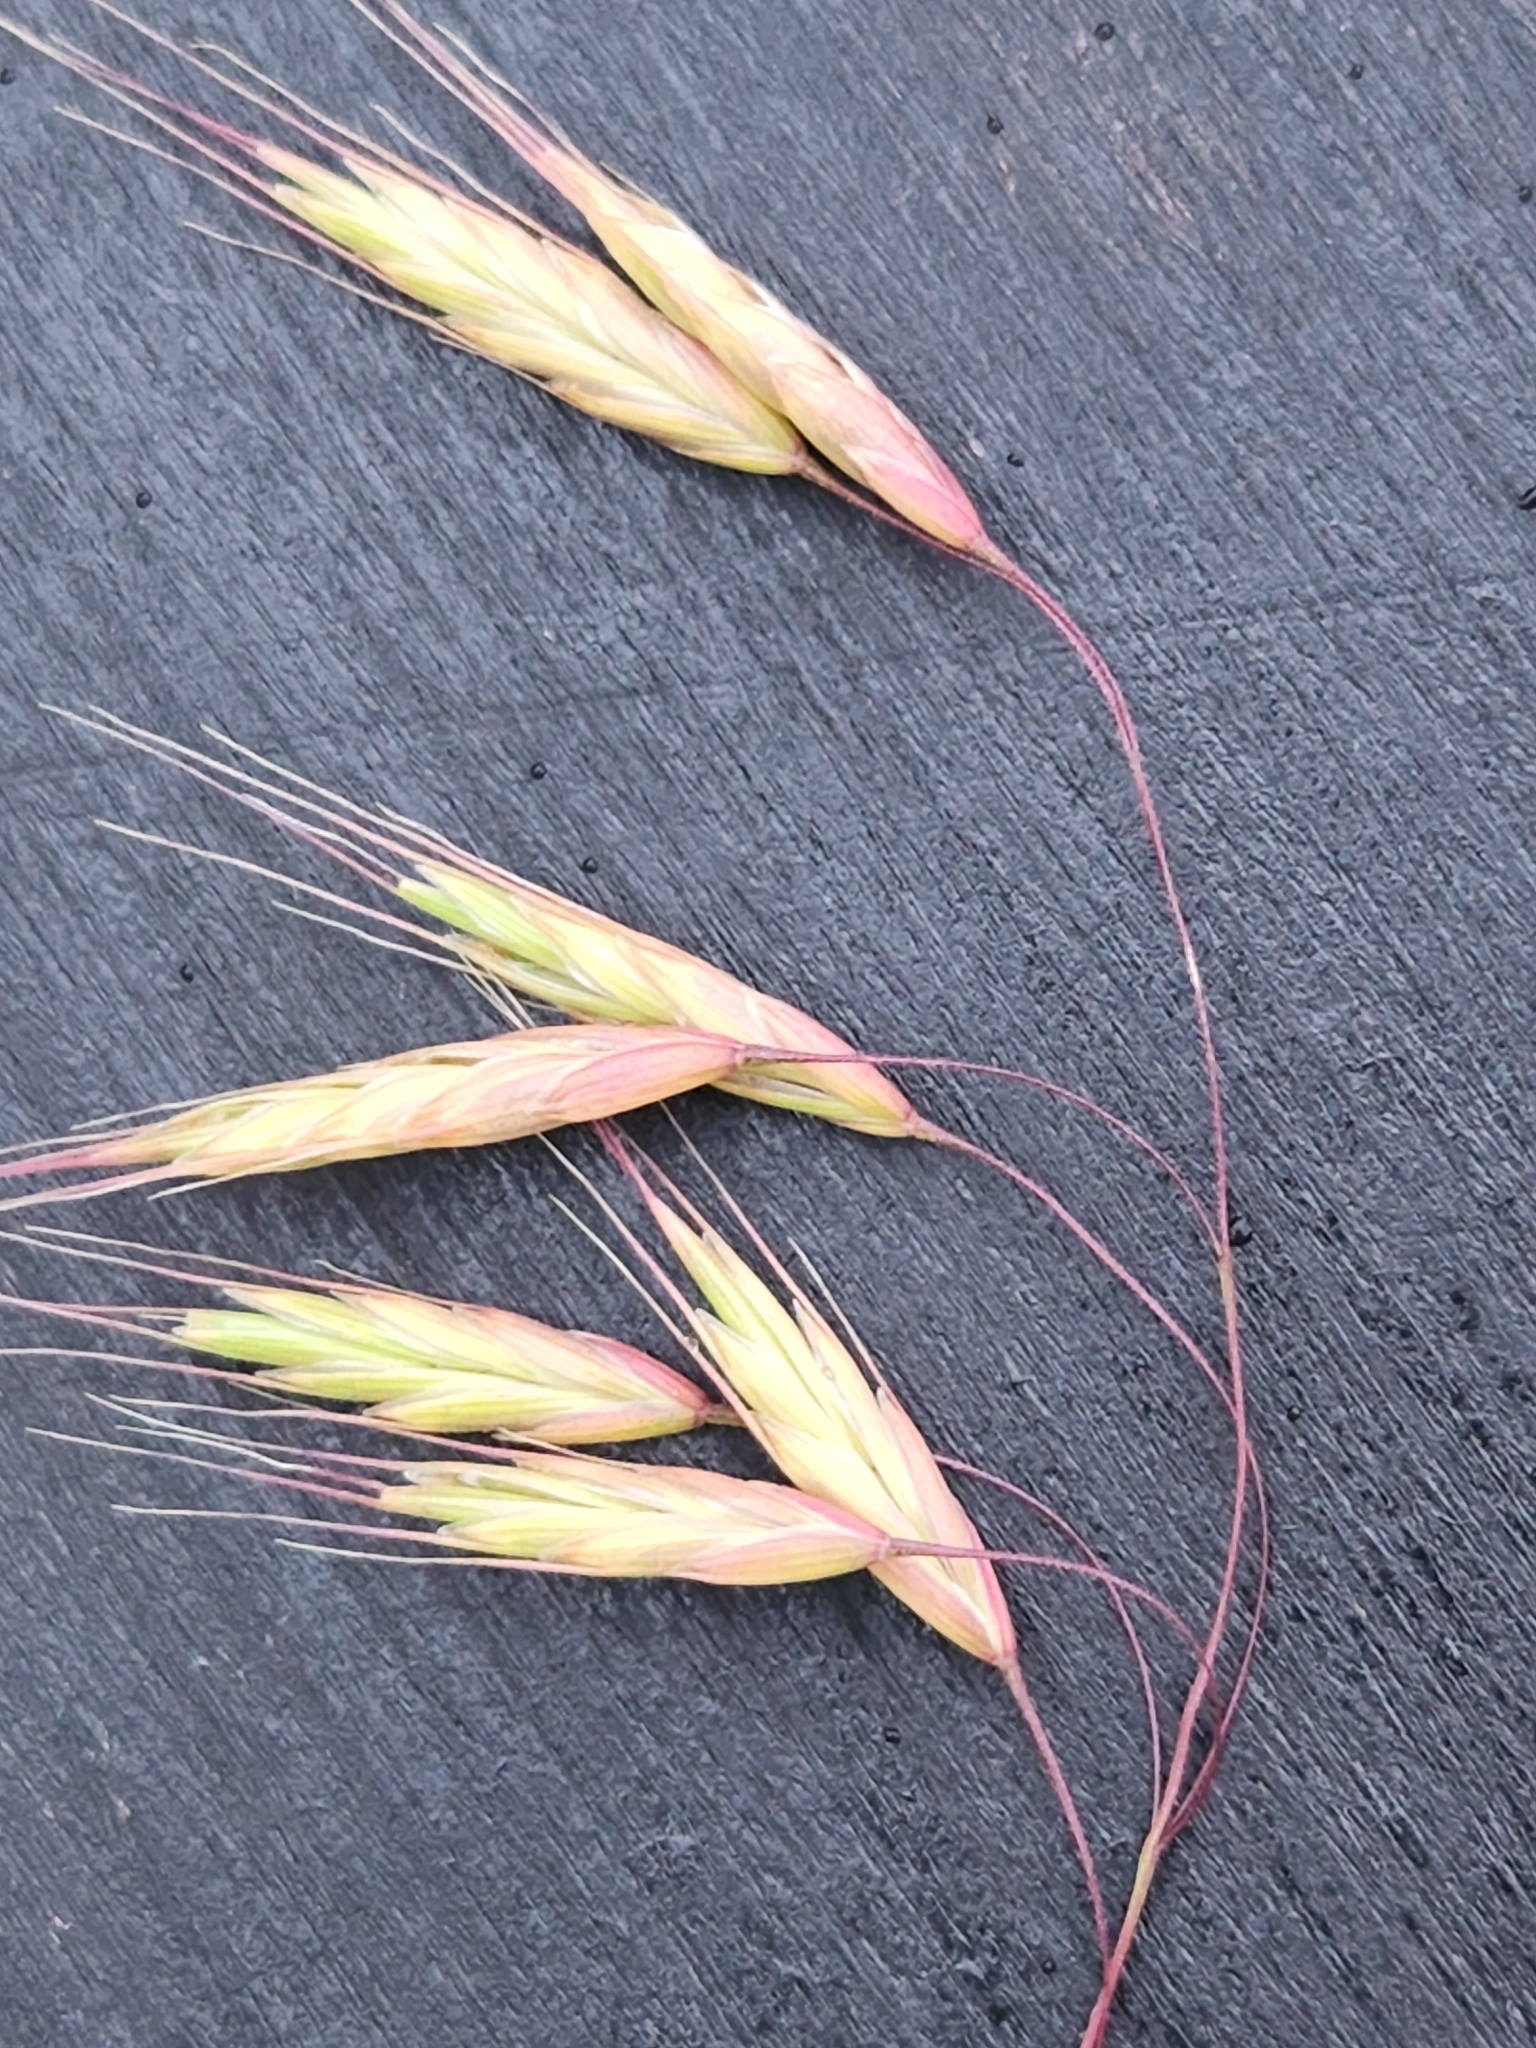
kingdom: Plantae
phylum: Tracheophyta
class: Liliopsida
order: Poales
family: Poaceae
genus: Bromus
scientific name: Bromus japonicus
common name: Japanese brome
